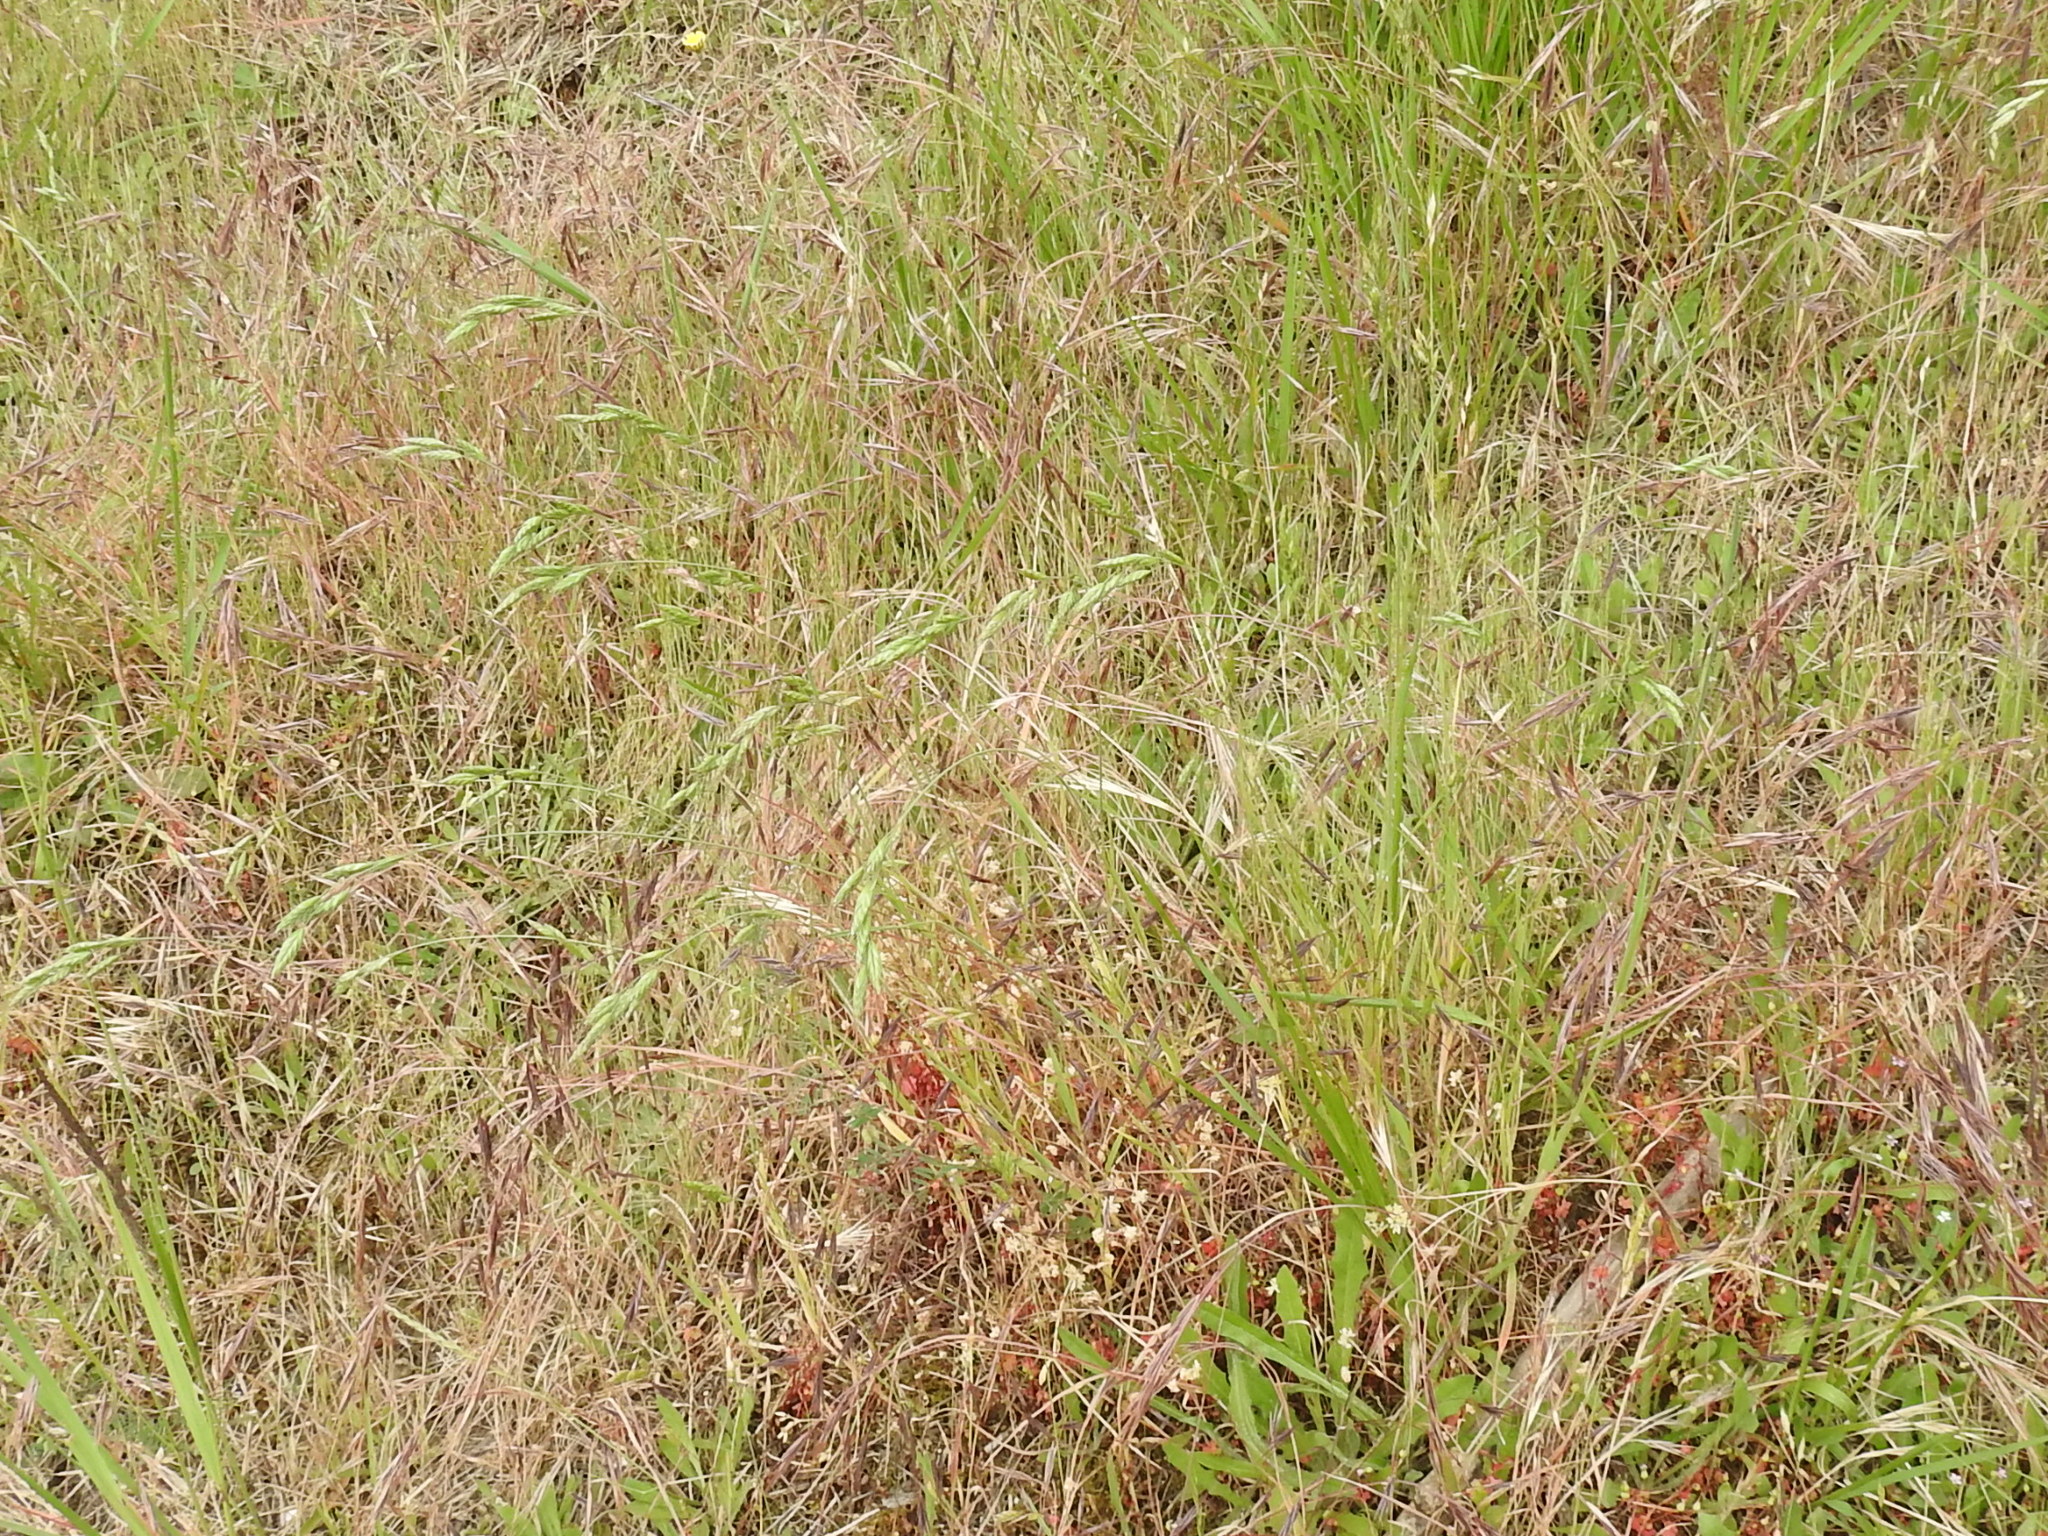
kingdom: Plantae
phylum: Tracheophyta
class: Liliopsida
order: Poales
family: Poaceae
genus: Bromus
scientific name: Bromus hordeaceus
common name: Soft brome
